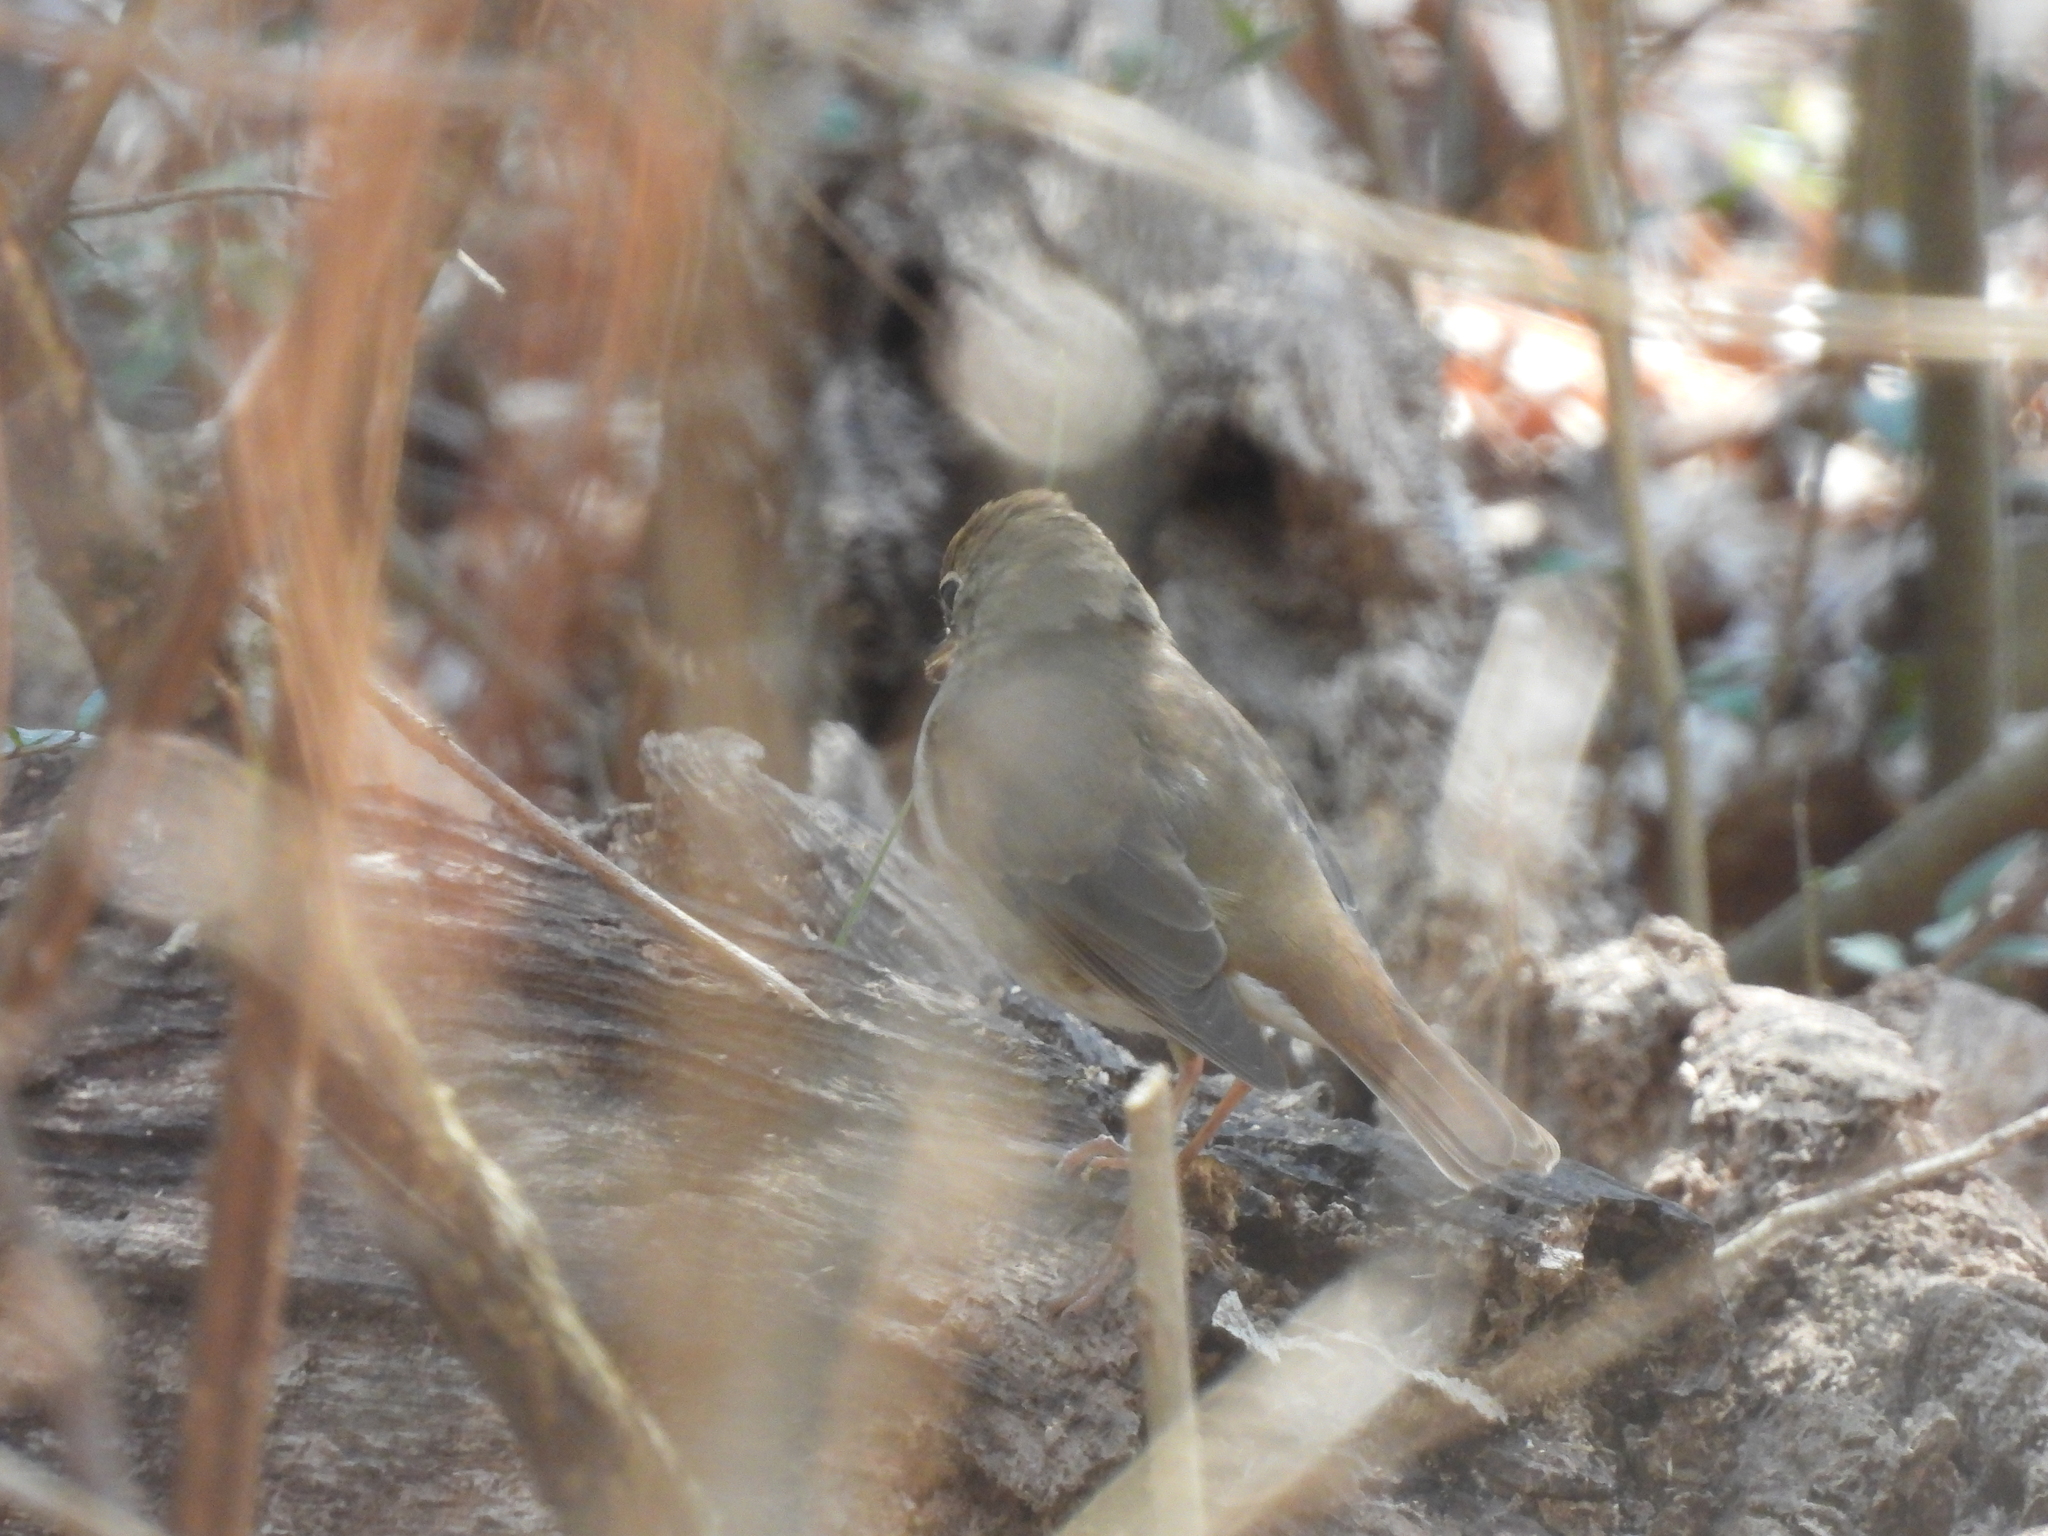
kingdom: Animalia
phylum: Chordata
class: Aves
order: Passeriformes
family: Turdidae
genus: Catharus
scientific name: Catharus guttatus
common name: Hermit thrush
